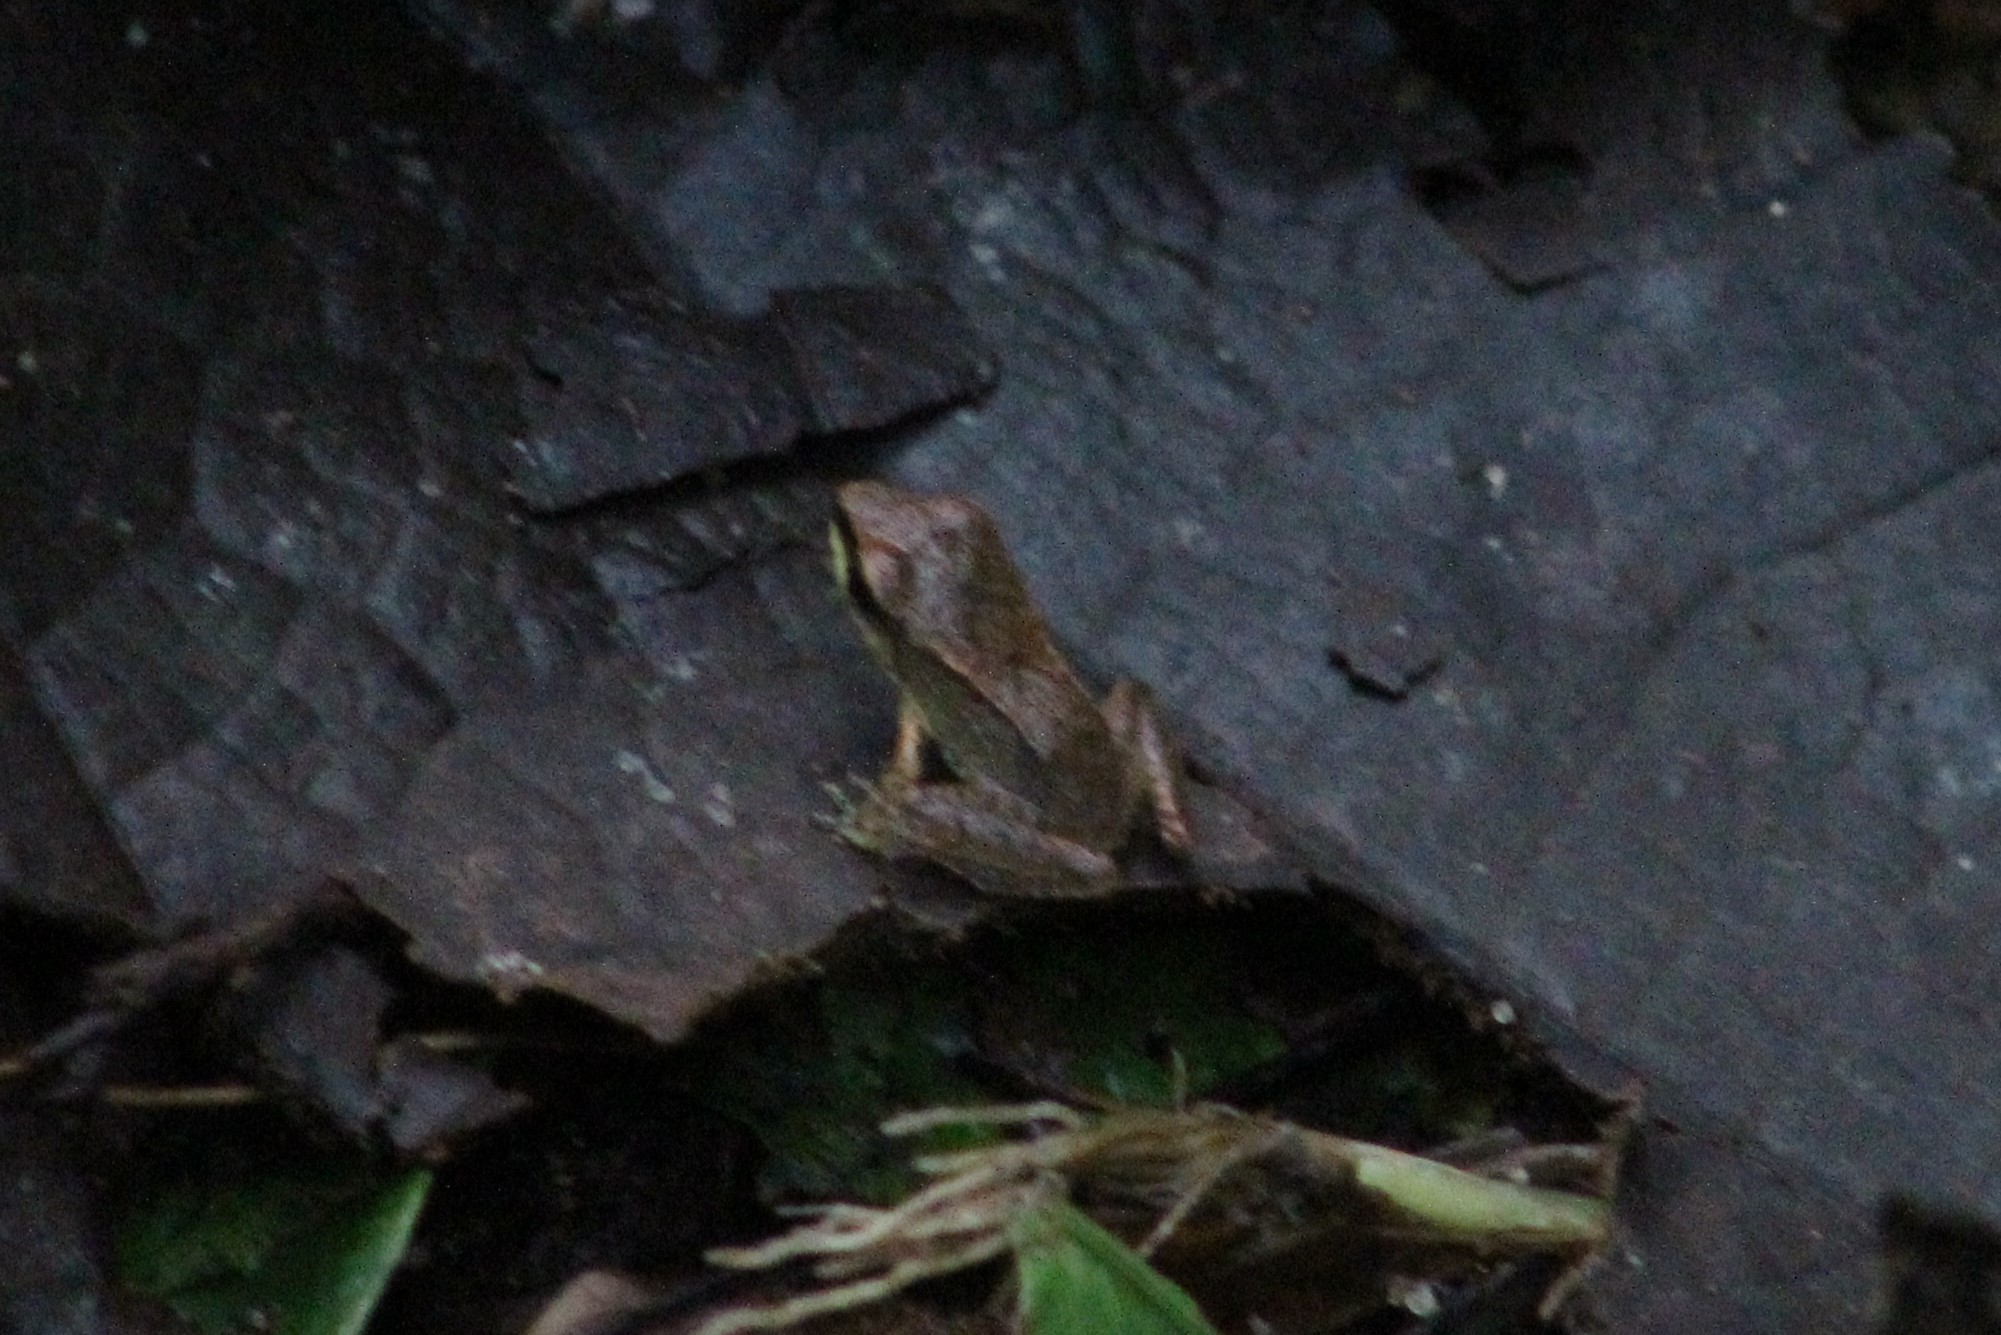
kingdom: Animalia
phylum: Chordata
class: Amphibia
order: Anura
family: Craugastoridae
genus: Pristimantis
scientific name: Pristimantis achatinus
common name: Cachabi robber frog
